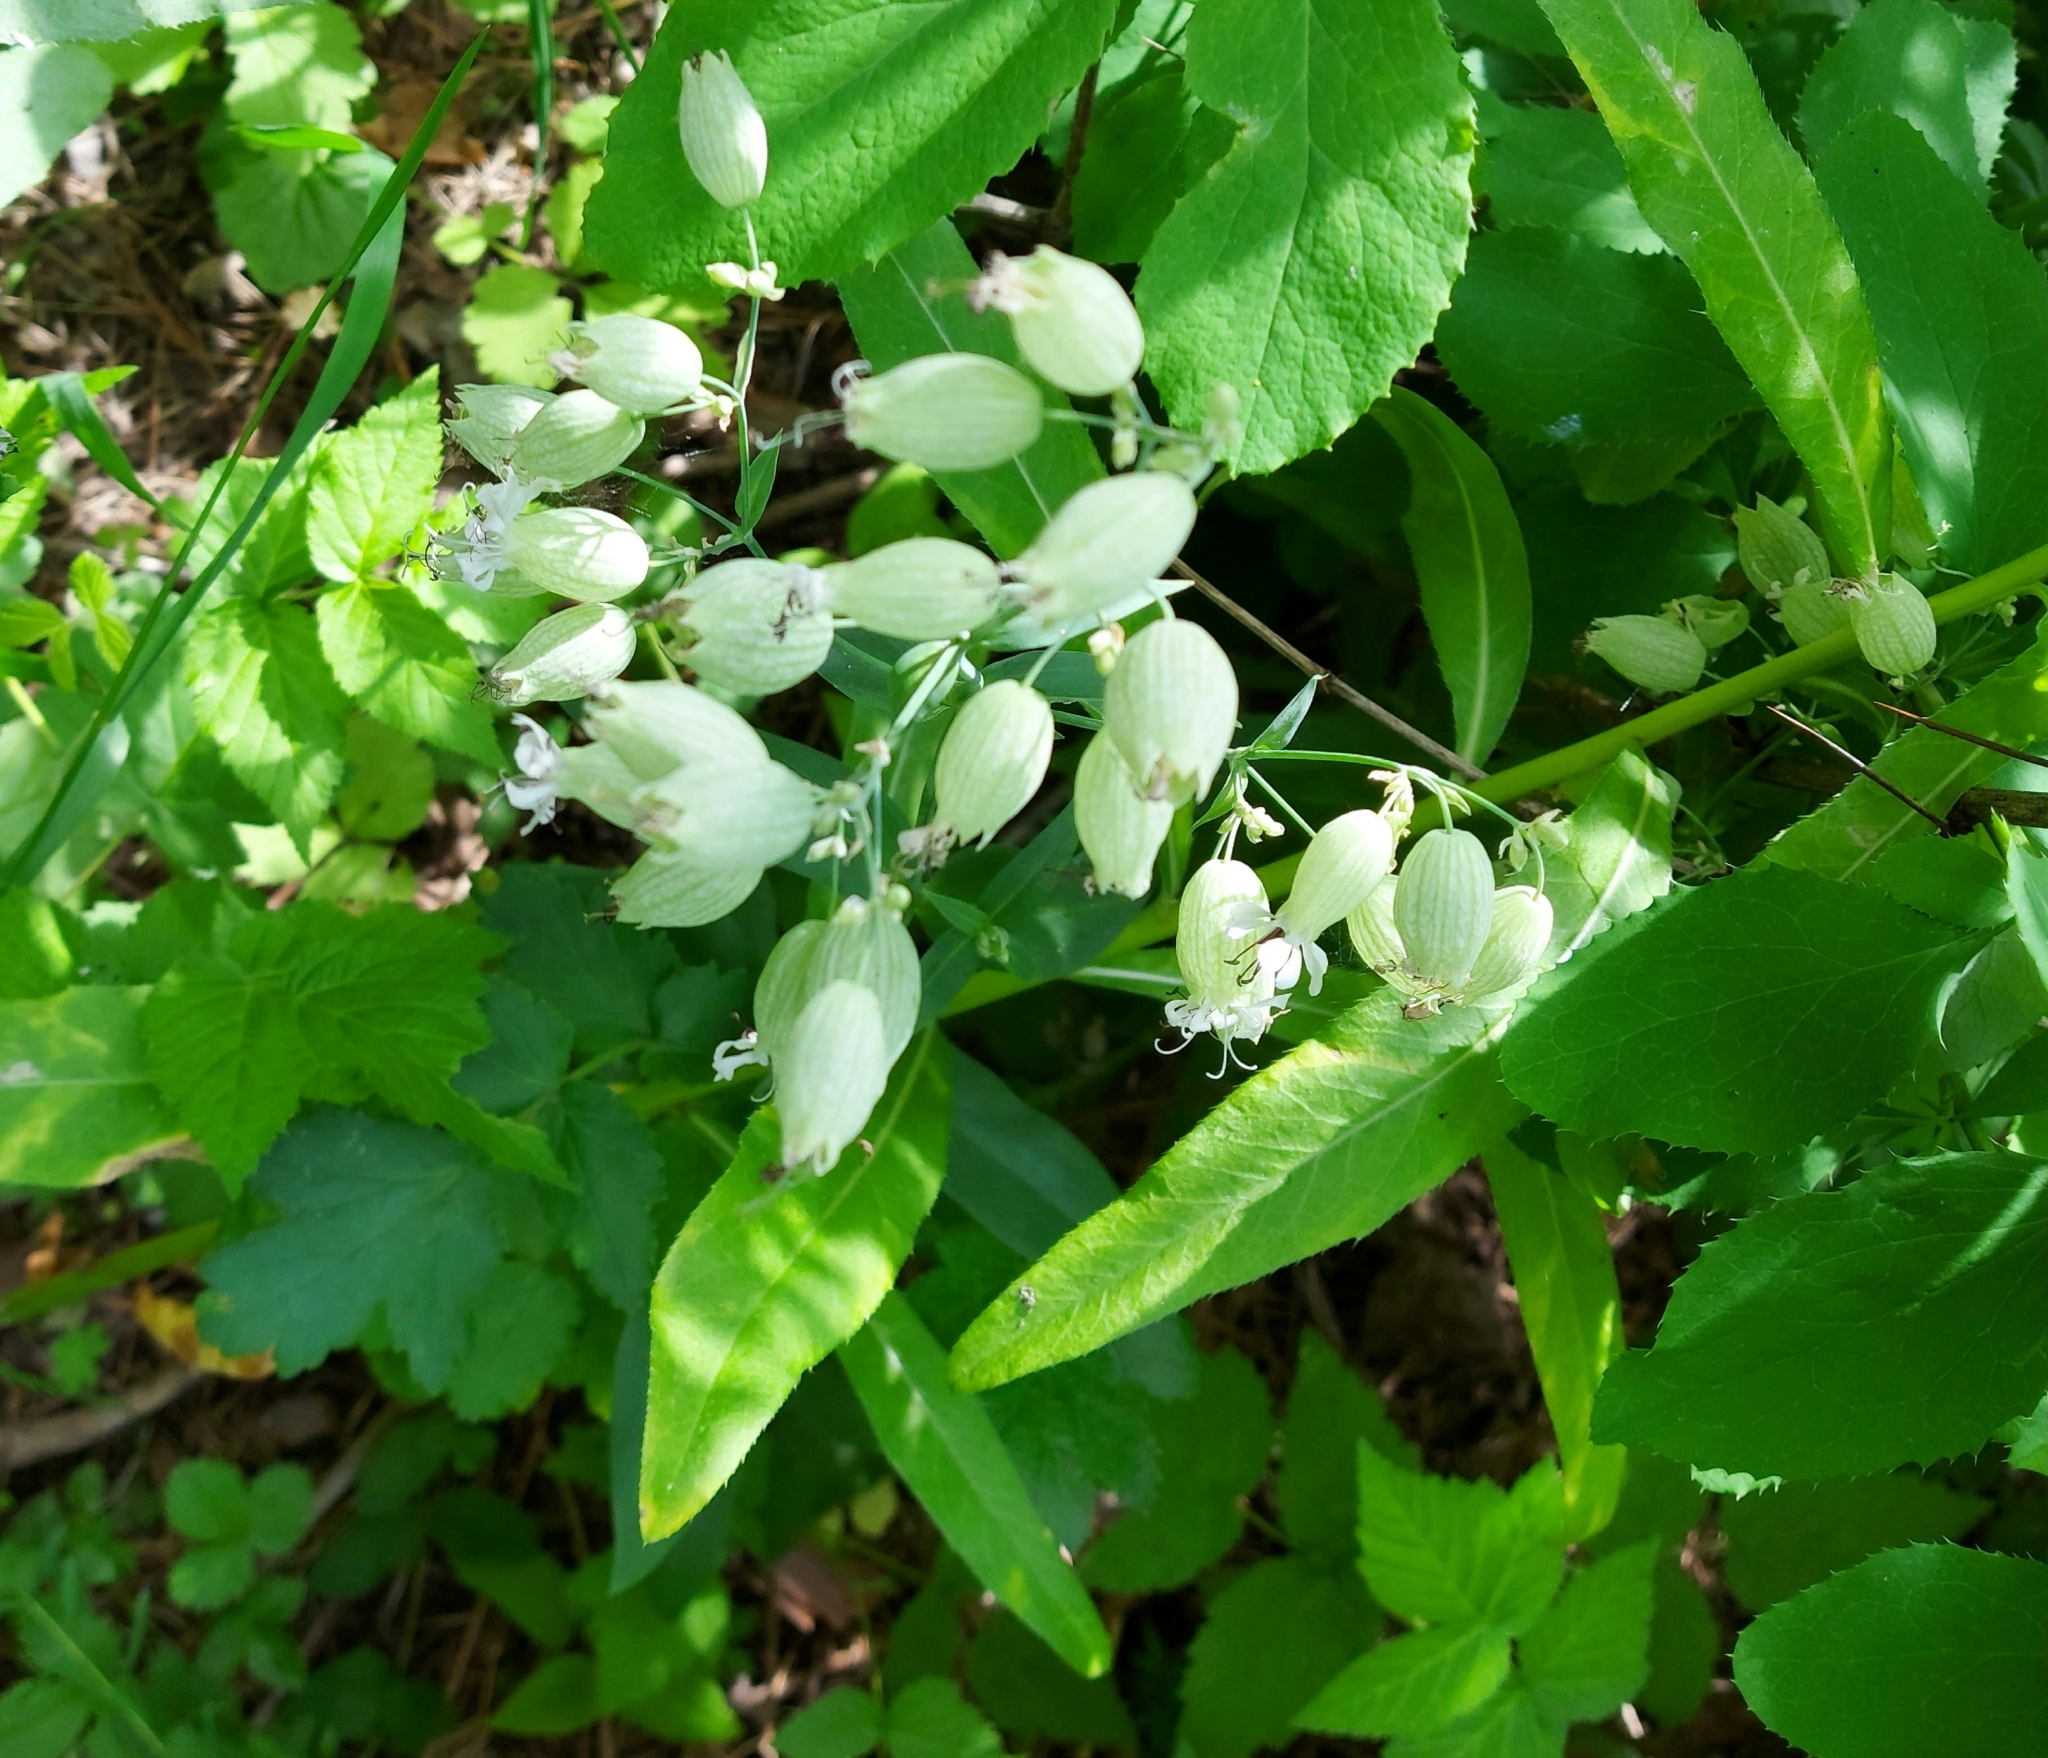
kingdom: Plantae
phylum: Tracheophyta
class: Magnoliopsida
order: Caryophyllales
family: Caryophyllaceae
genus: Silene
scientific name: Silene vulgaris
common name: Bladder campion
